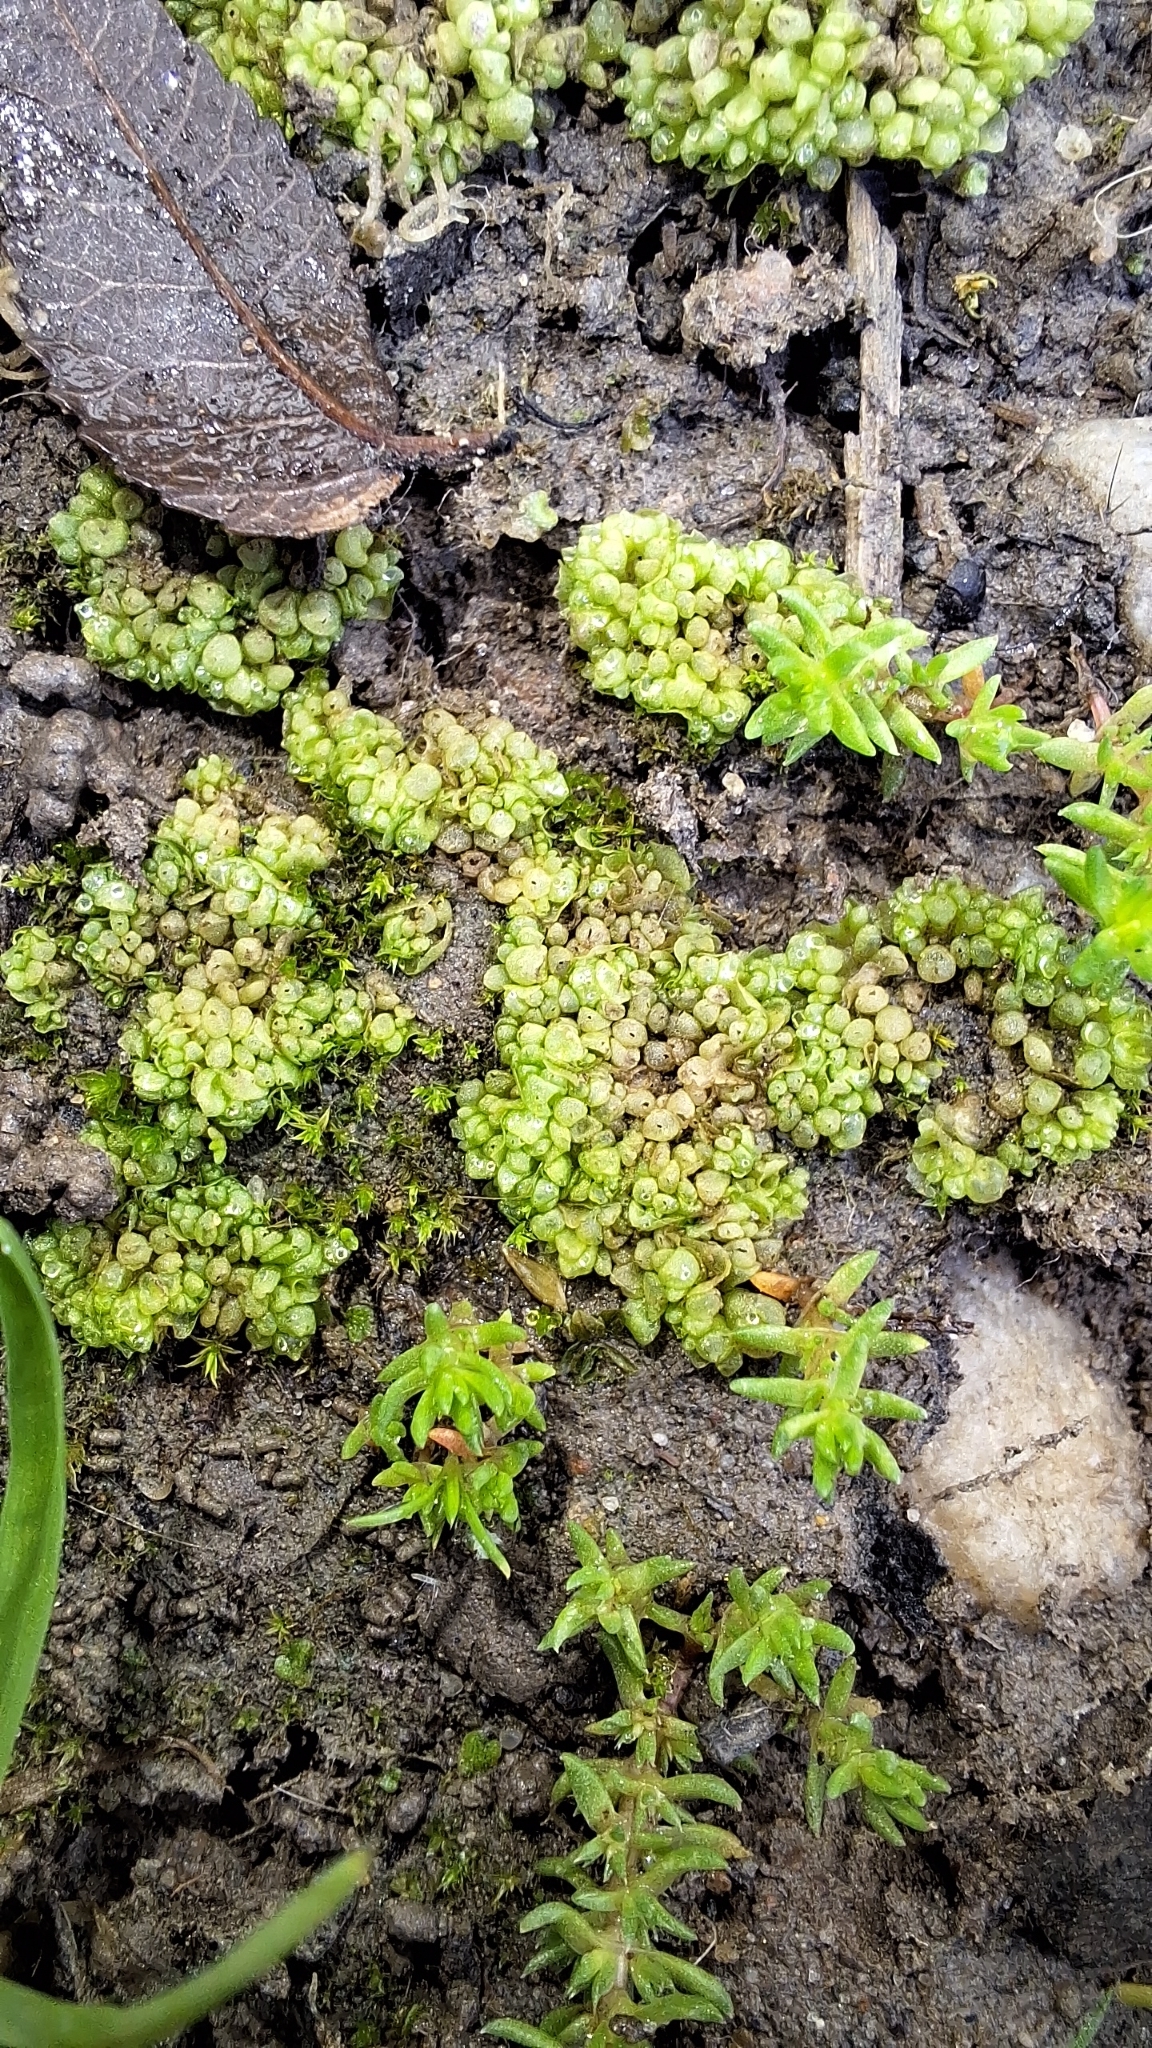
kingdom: Plantae
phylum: Marchantiophyta
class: Marchantiopsida
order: Sphaerocarpales
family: Sphaerocarpaceae
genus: Sphaerocarpos
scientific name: Sphaerocarpos texanus
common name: Texas balloonwort
